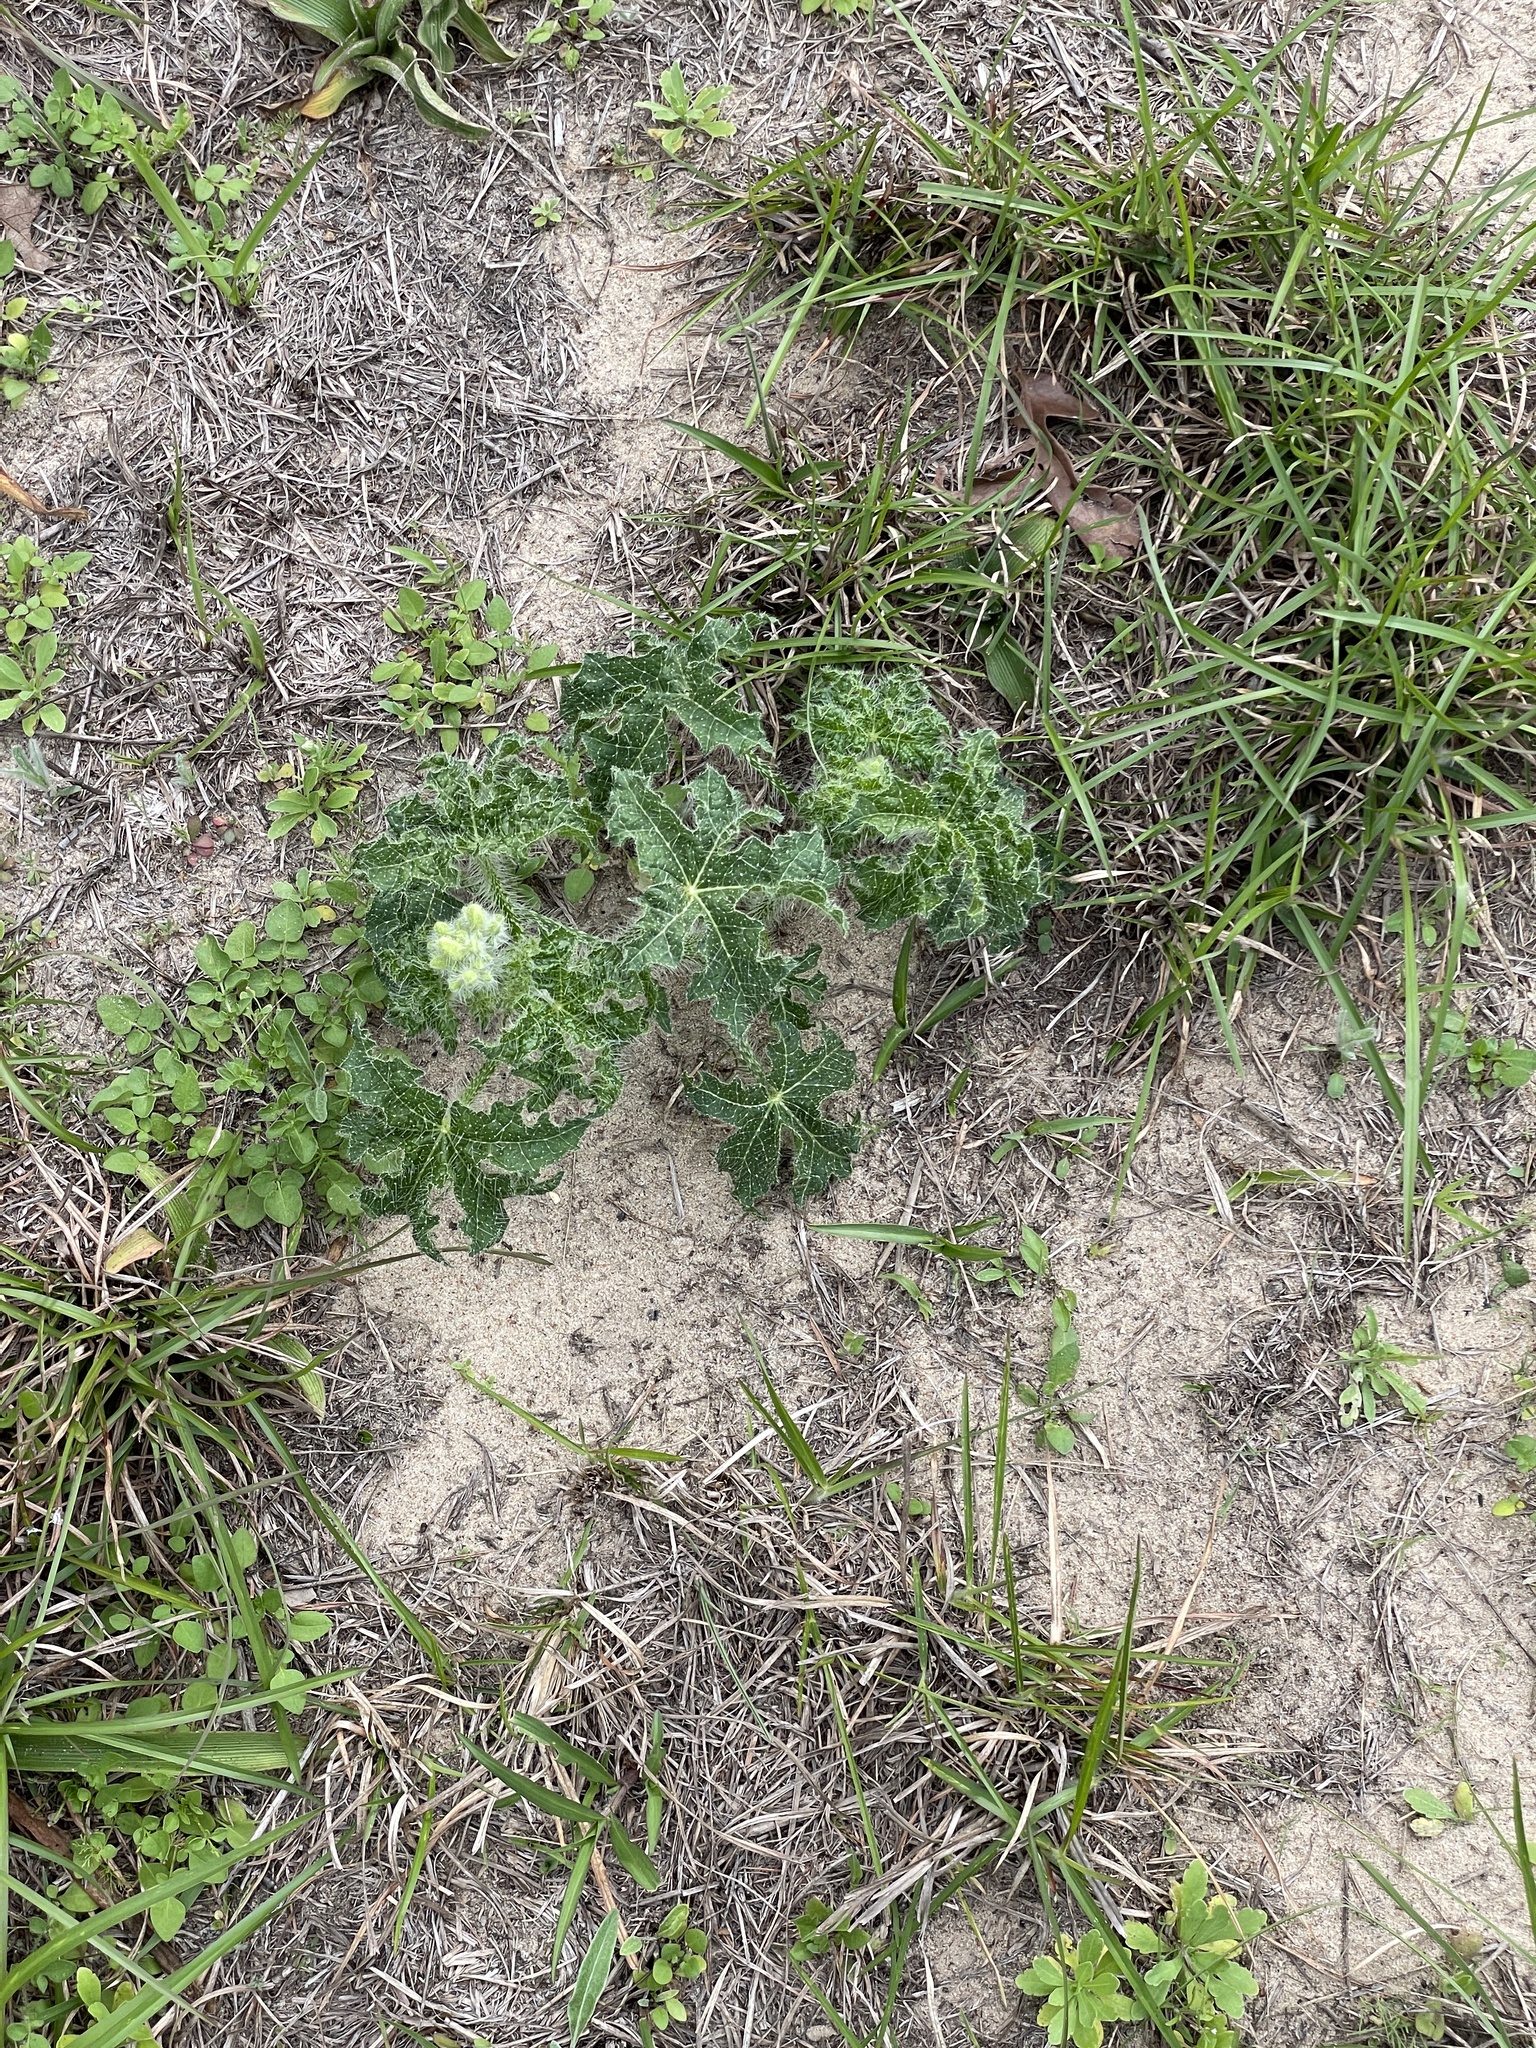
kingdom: Plantae
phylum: Tracheophyta
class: Magnoliopsida
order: Malpighiales
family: Euphorbiaceae
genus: Cnidoscolus
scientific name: Cnidoscolus texanus
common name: Texas bull-nettle
